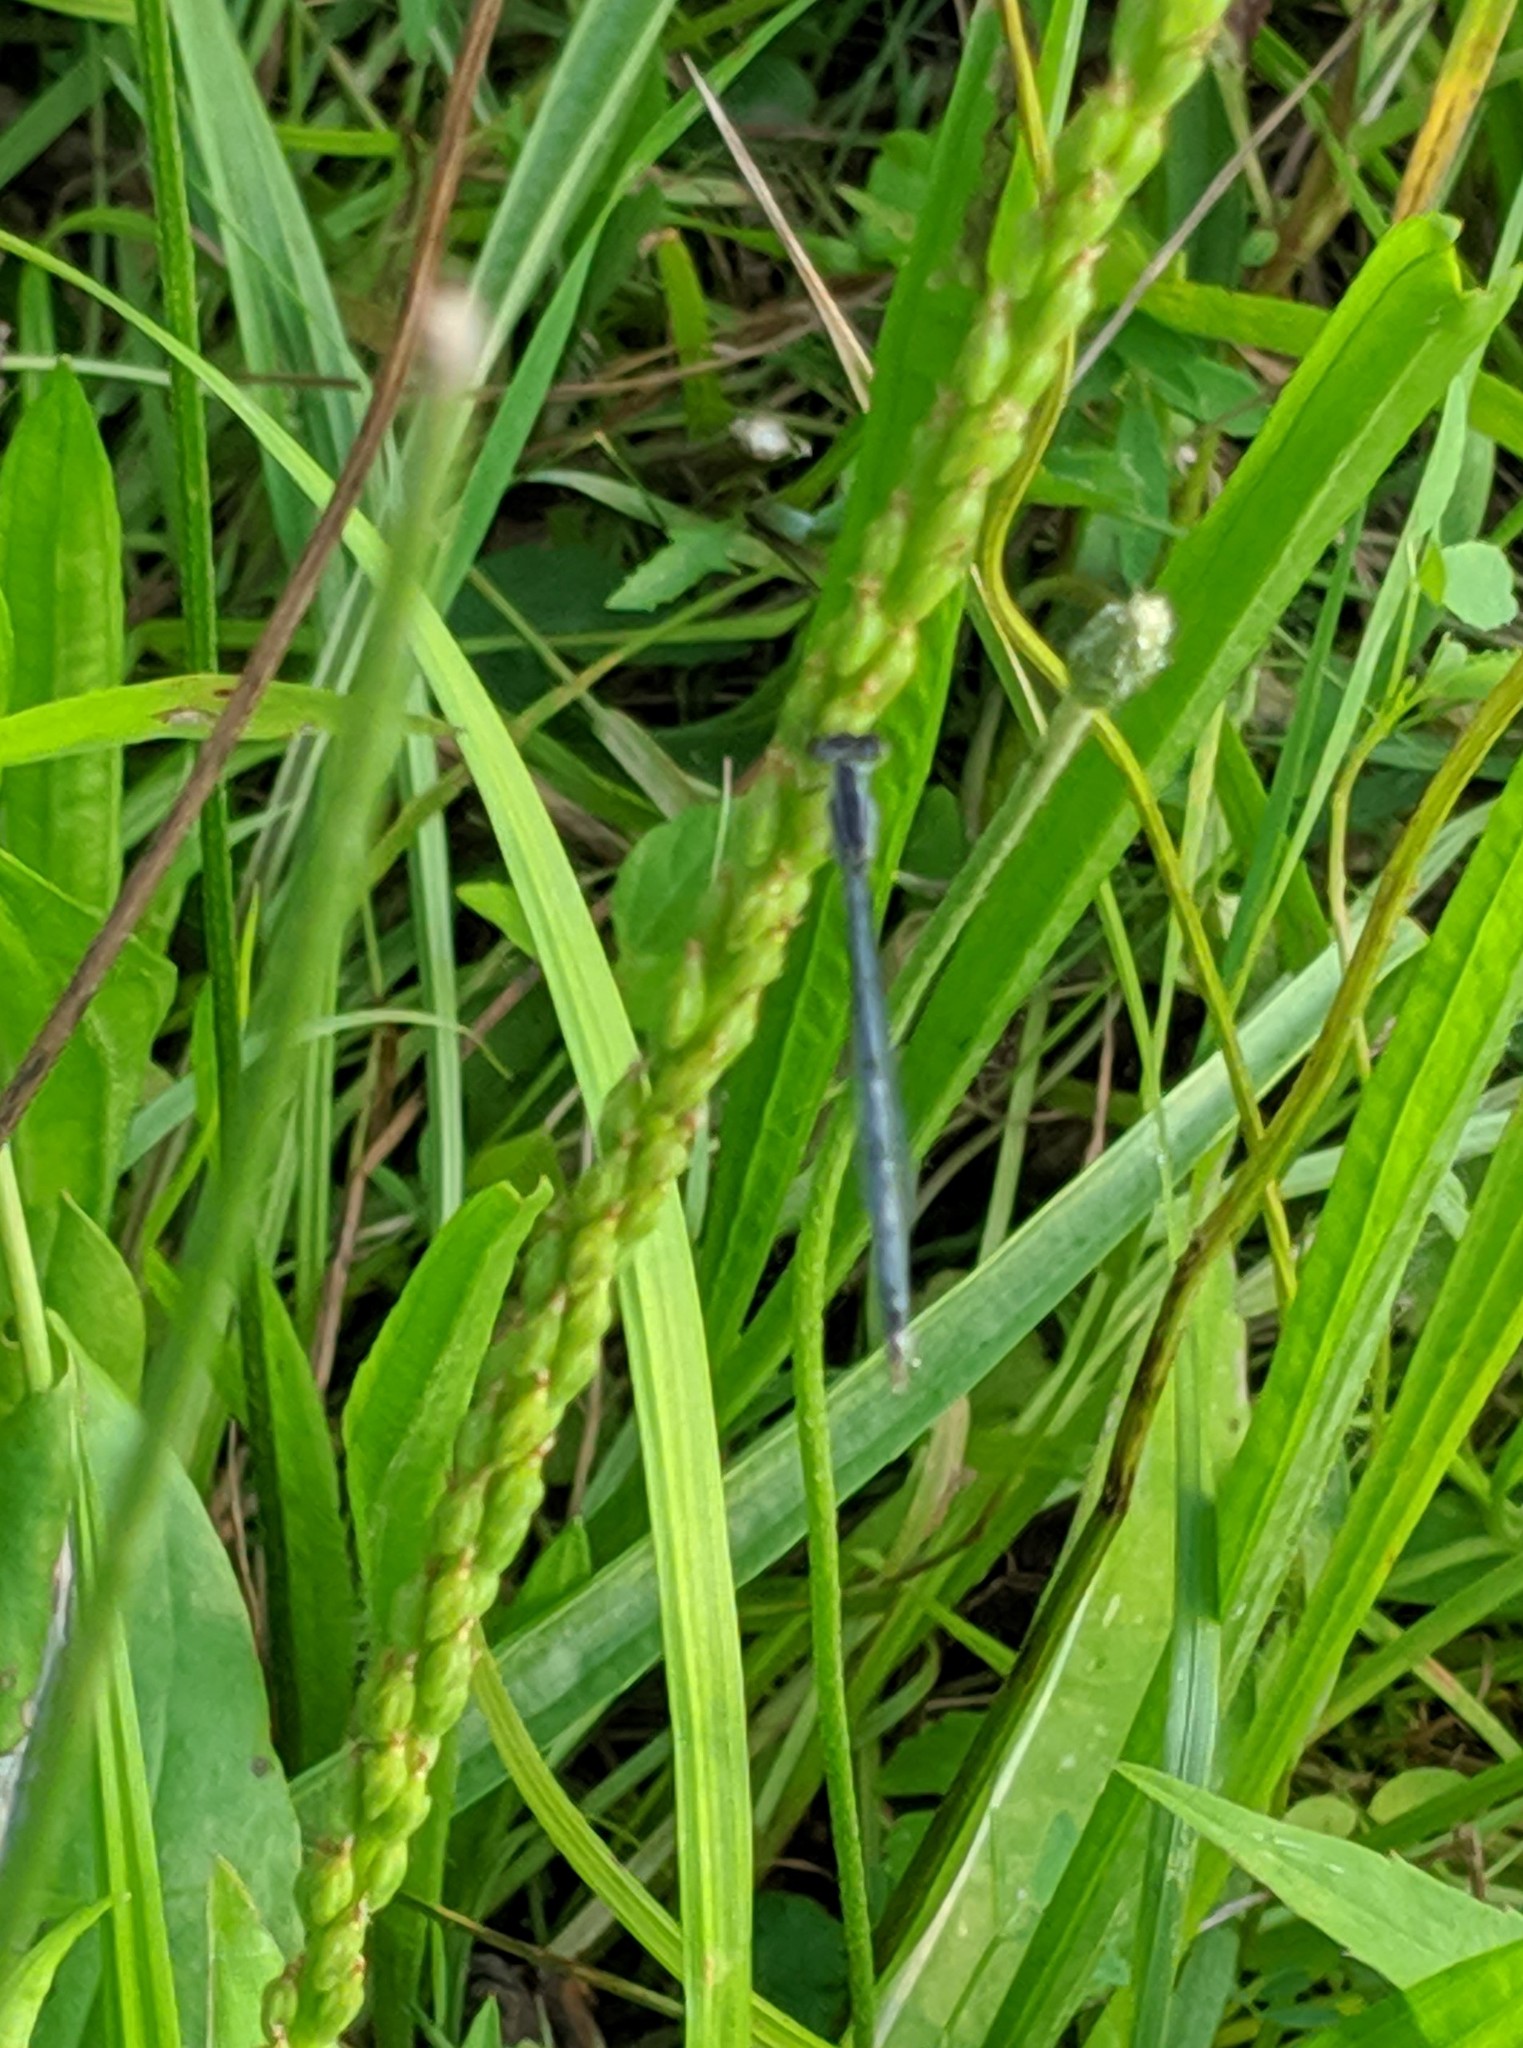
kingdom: Animalia
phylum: Arthropoda
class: Insecta
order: Odonata
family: Coenagrionidae
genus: Ischnura
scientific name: Ischnura verticalis
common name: Eastern forktail
